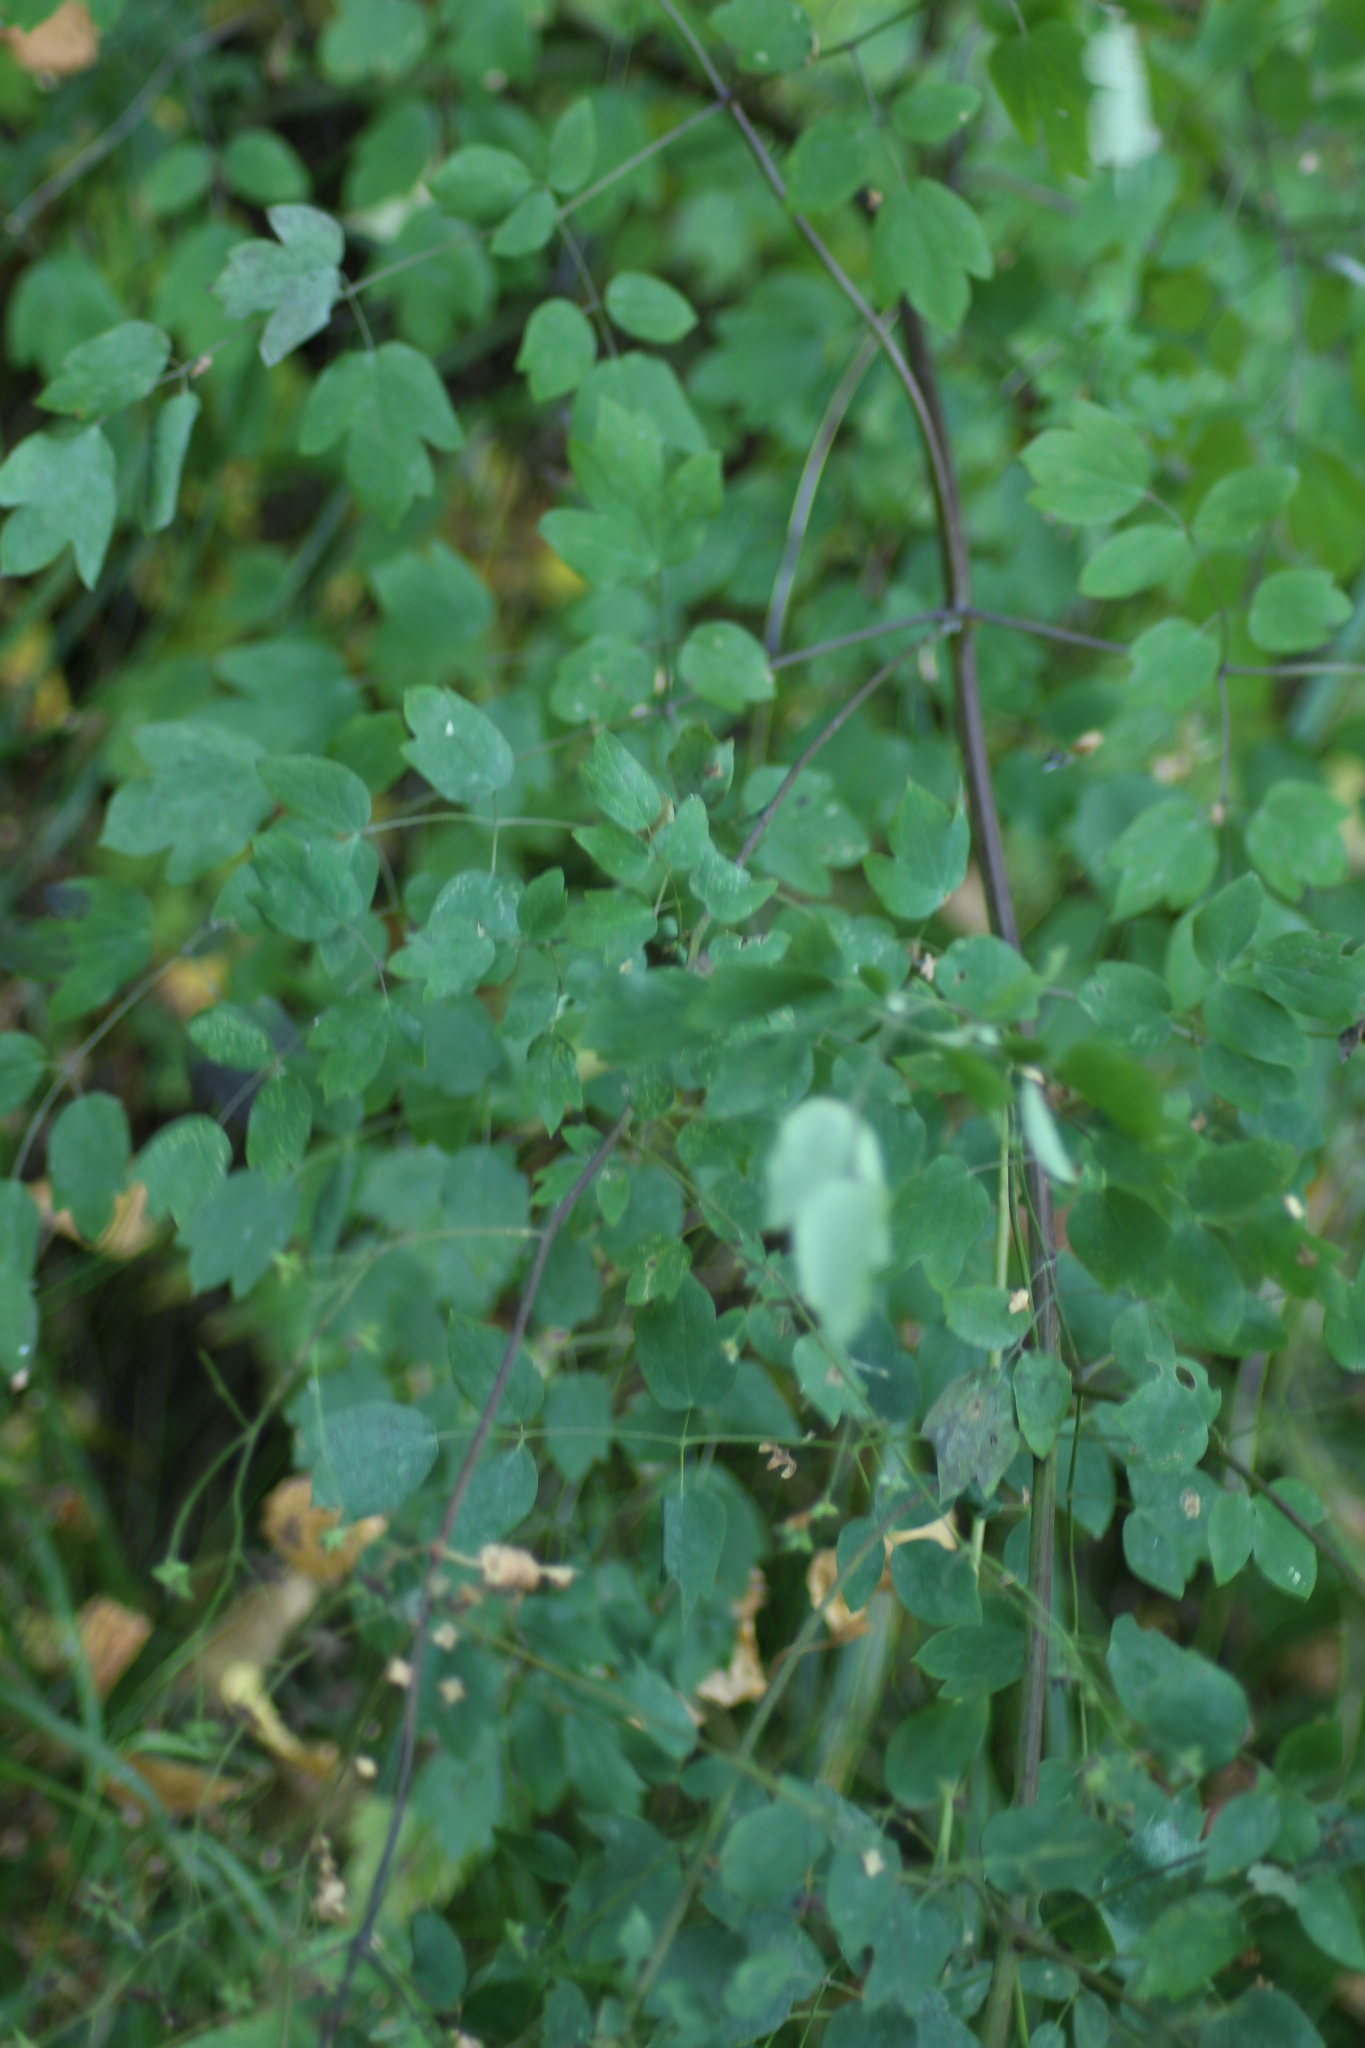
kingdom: Plantae
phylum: Tracheophyta
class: Magnoliopsida
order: Ranunculales
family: Ranunculaceae
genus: Thalictrum
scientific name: Thalictrum minus
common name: Lesser meadow-rue
